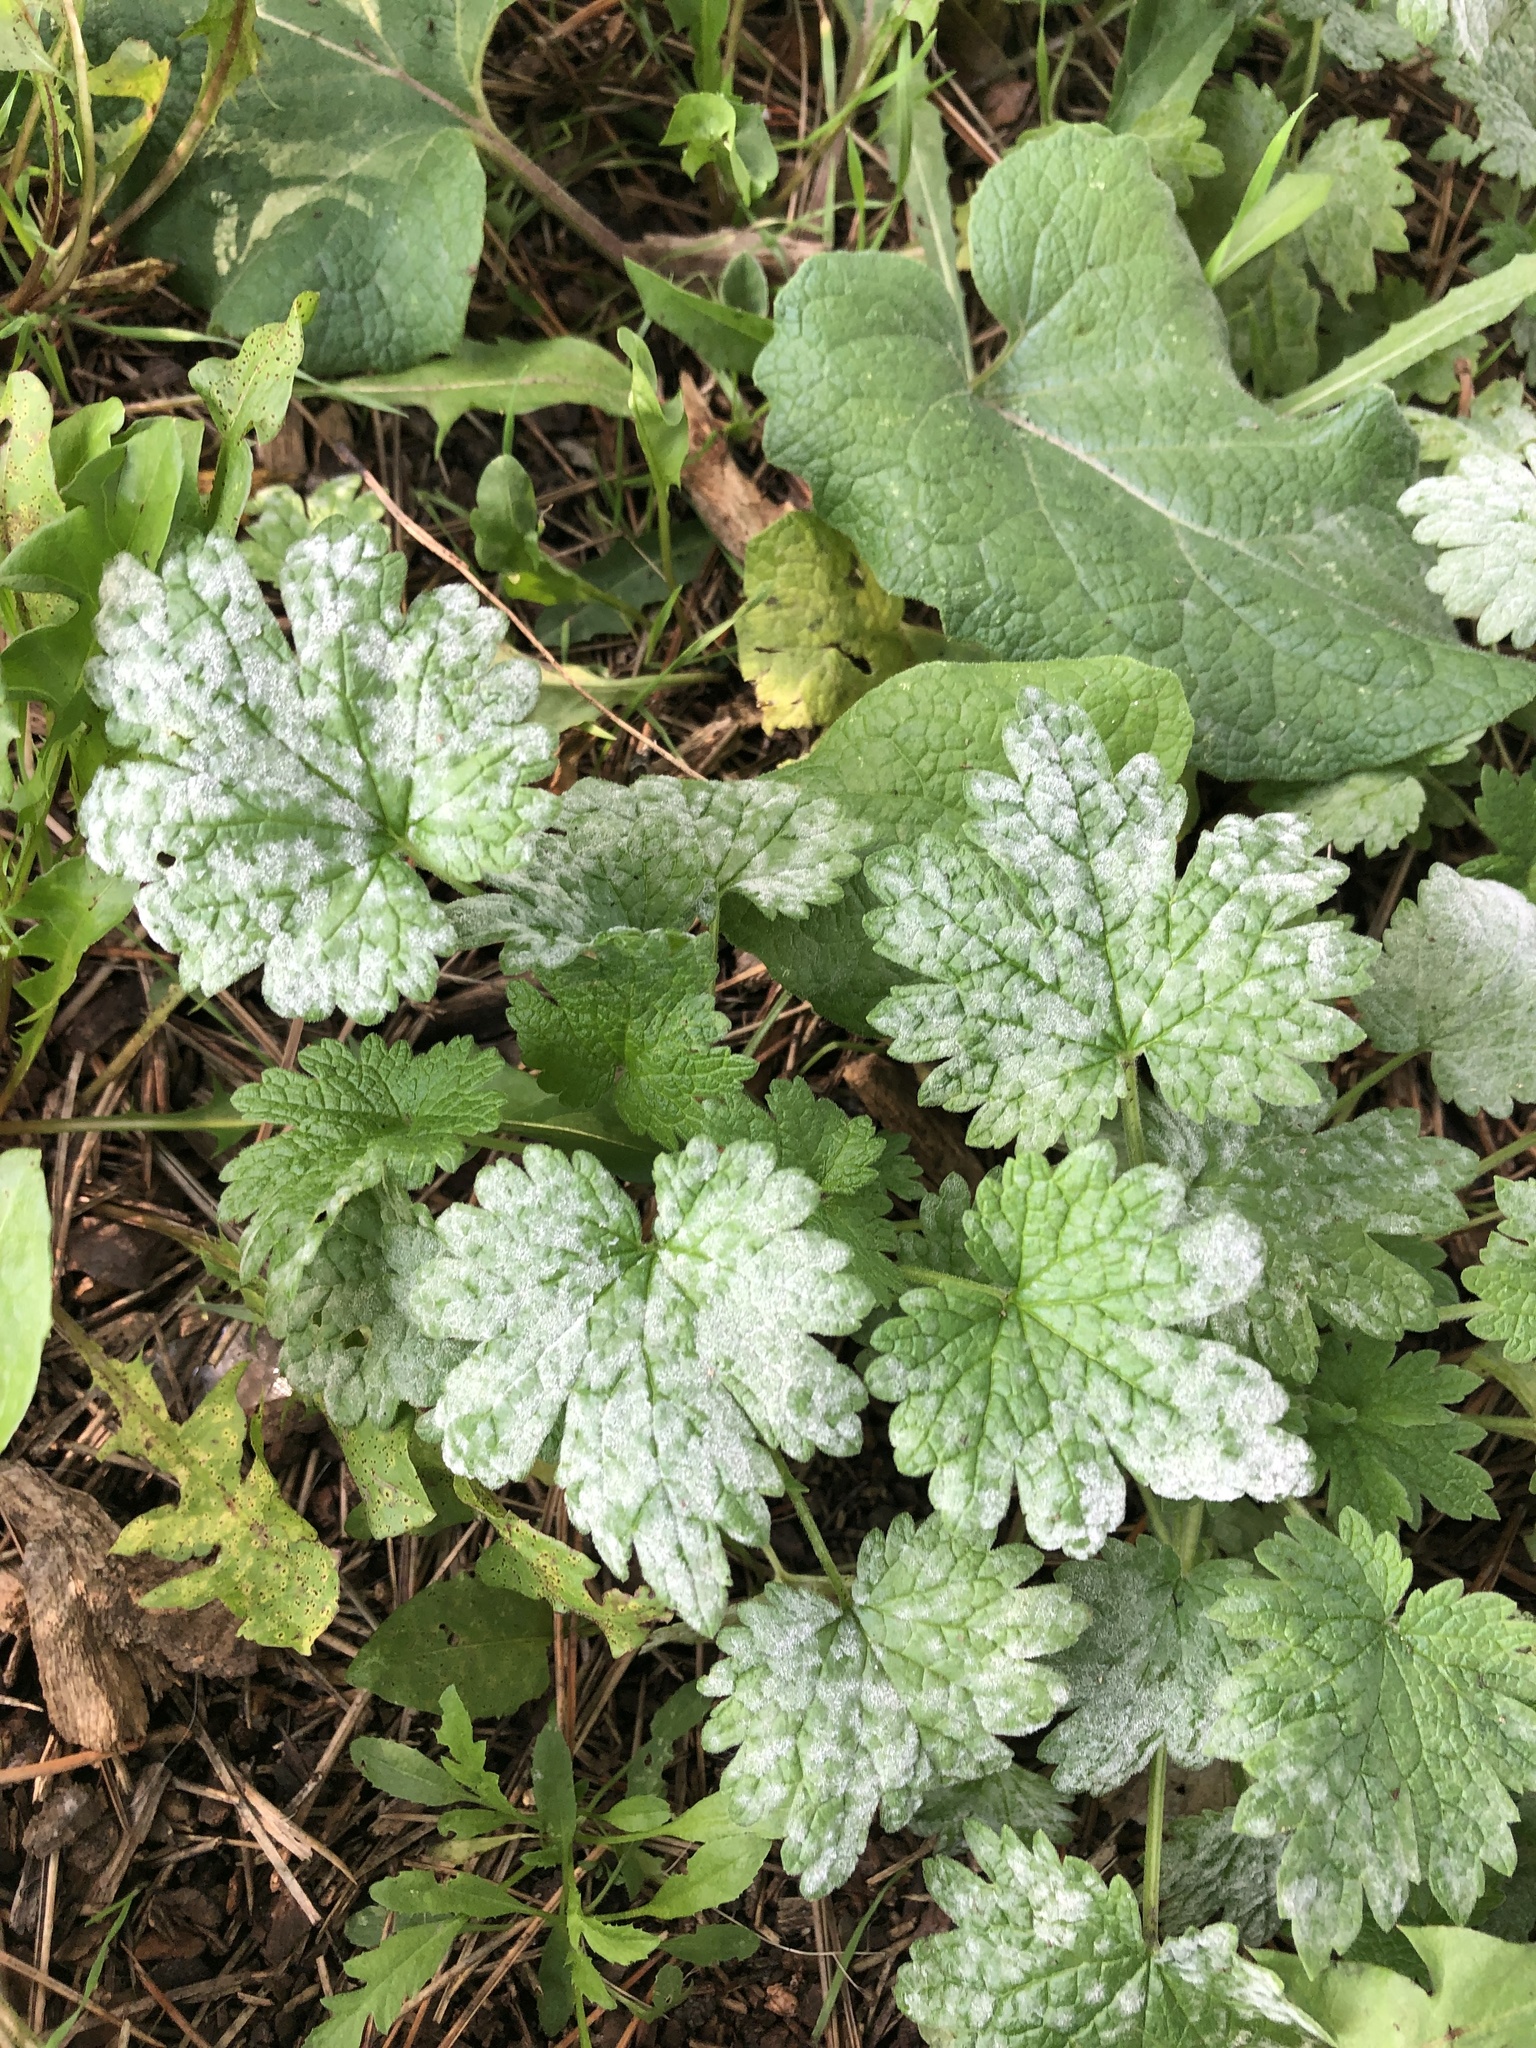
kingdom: Plantae
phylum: Tracheophyta
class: Magnoliopsida
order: Lamiales
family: Lamiaceae
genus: Leonurus
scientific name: Leonurus cardiaca
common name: Motherwort
